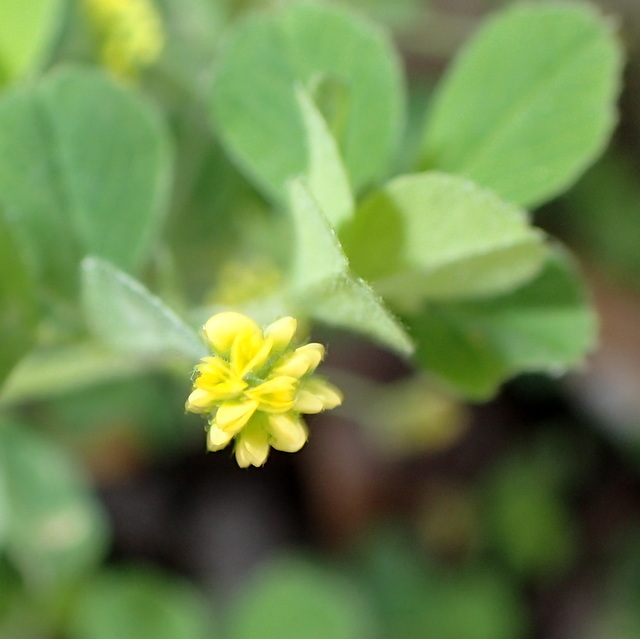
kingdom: Plantae
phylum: Tracheophyta
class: Magnoliopsida
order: Fabales
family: Fabaceae
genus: Medicago
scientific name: Medicago lupulina
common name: Black medick
